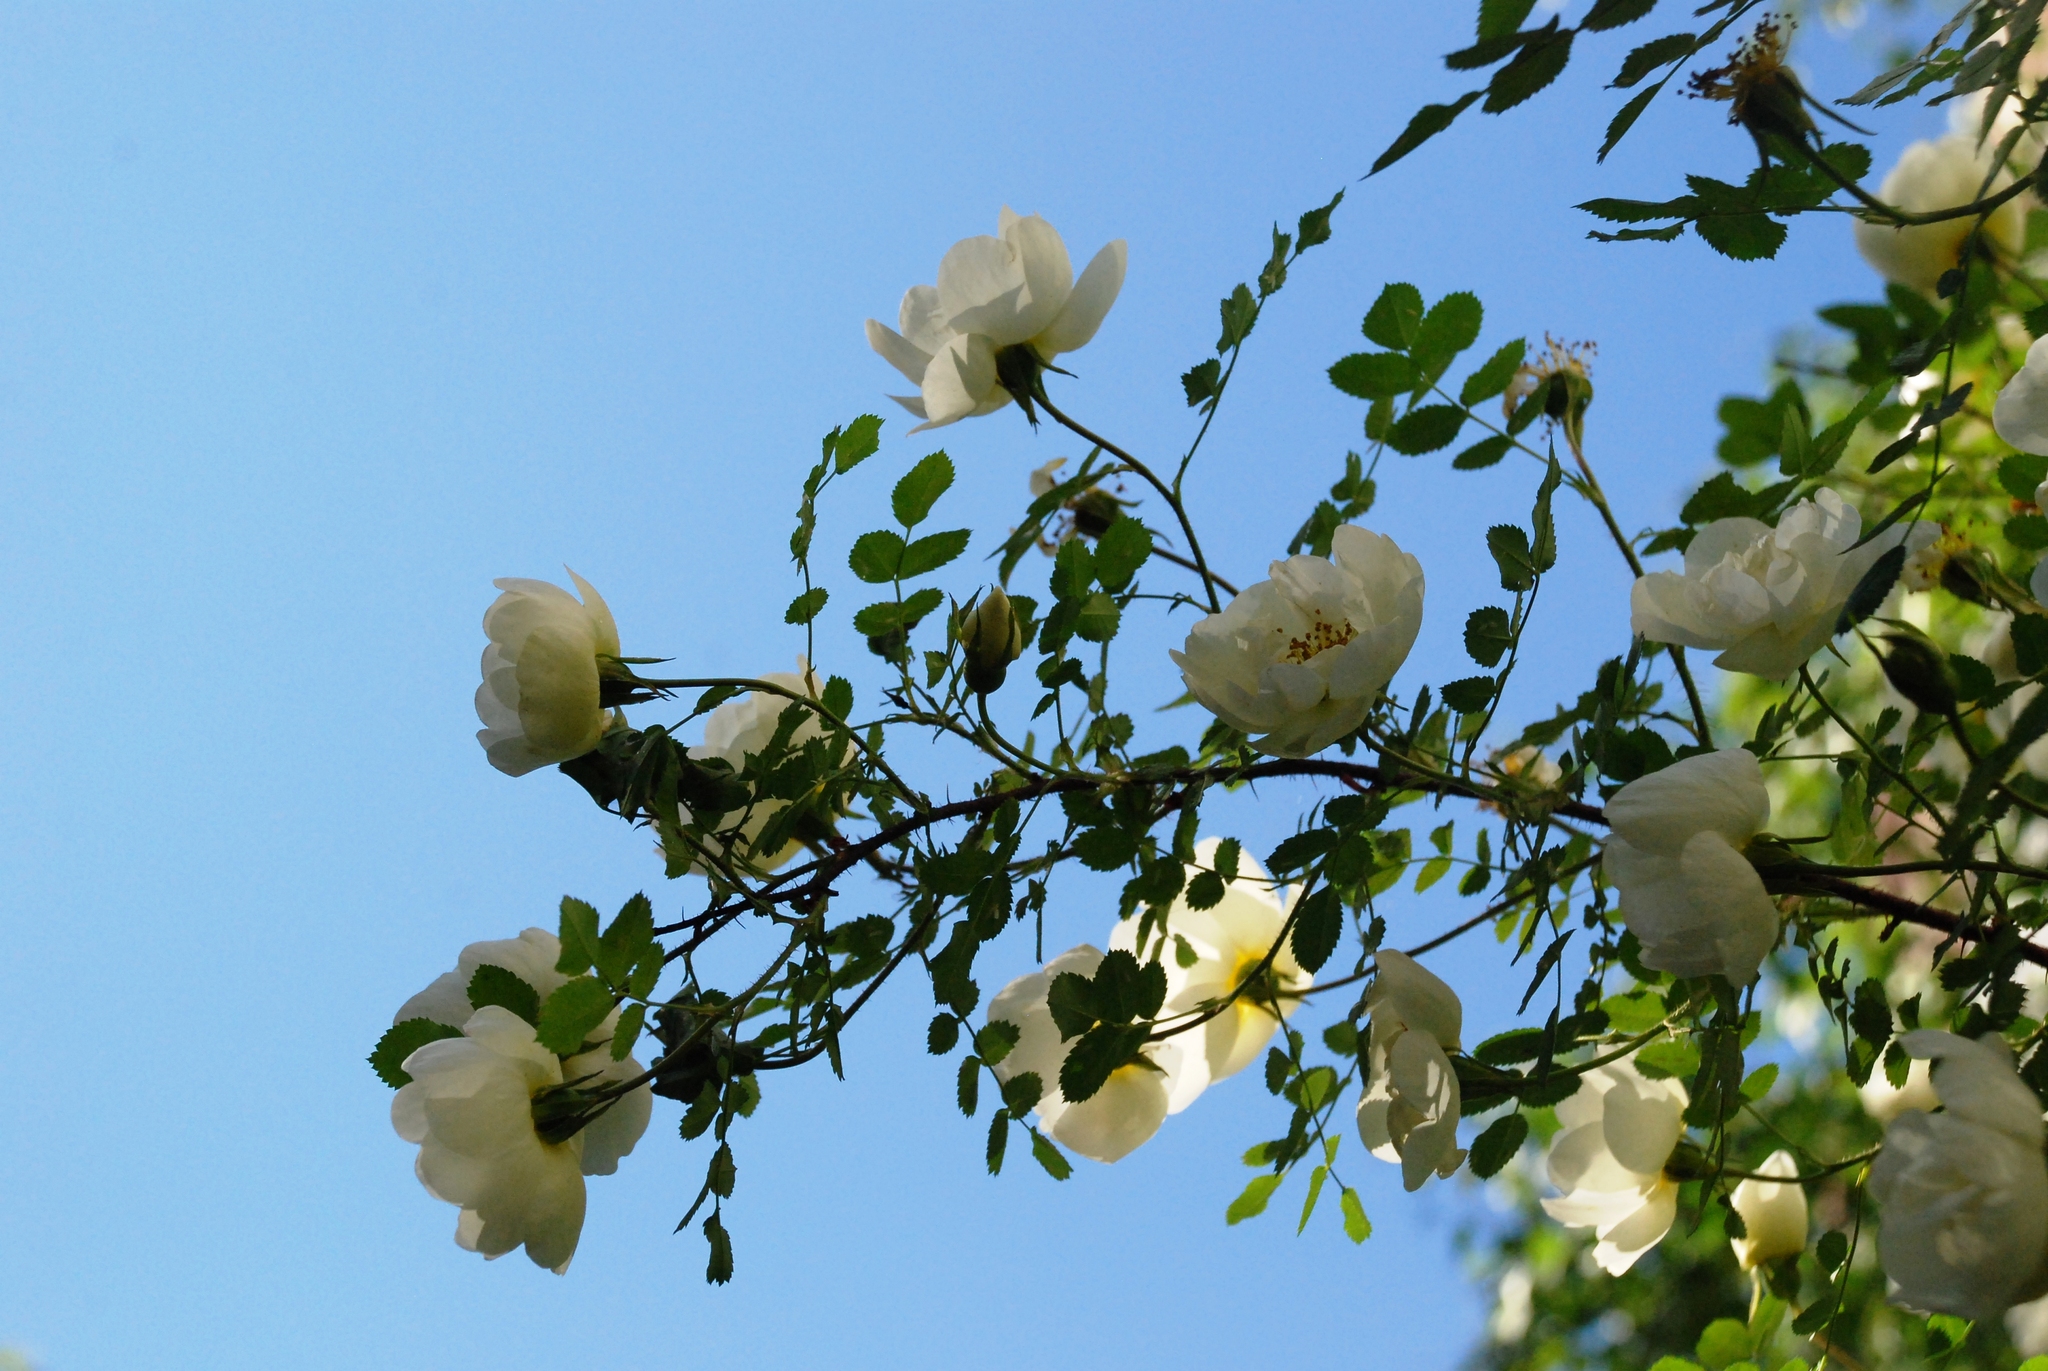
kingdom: Plantae
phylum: Tracheophyta
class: Magnoliopsida
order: Rosales
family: Rosaceae
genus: Rosa
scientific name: Rosa spinosissima
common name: Burnet rose
